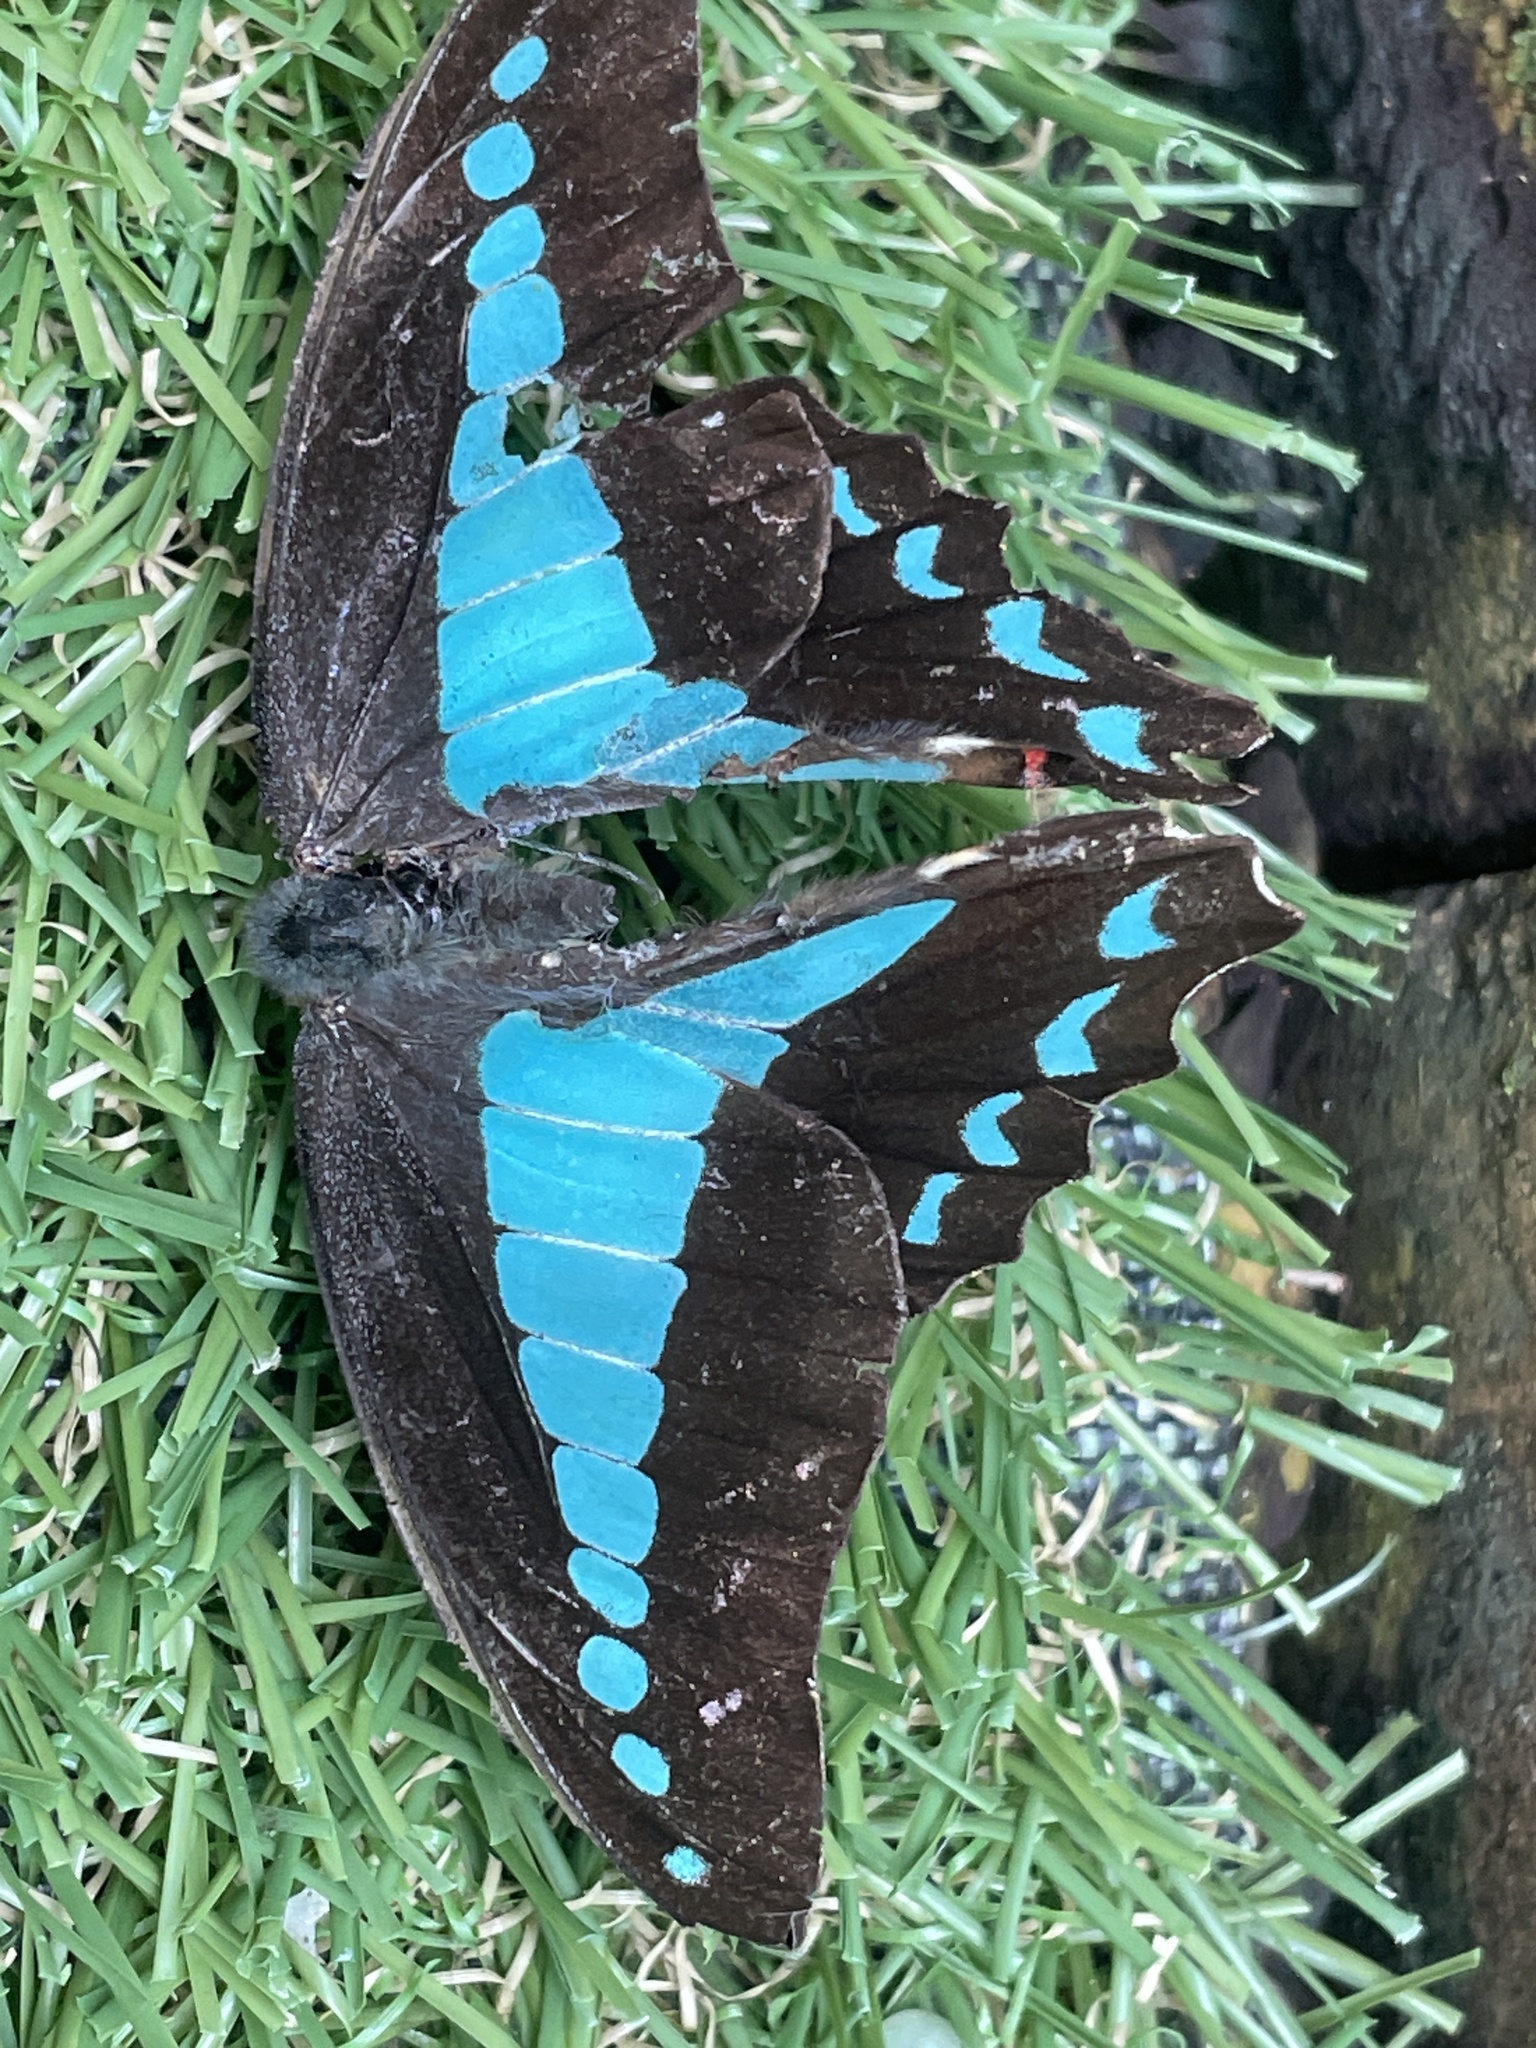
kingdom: Animalia
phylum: Arthropoda
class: Insecta
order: Lepidoptera
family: Papilionidae
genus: Graphium
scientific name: Graphium
